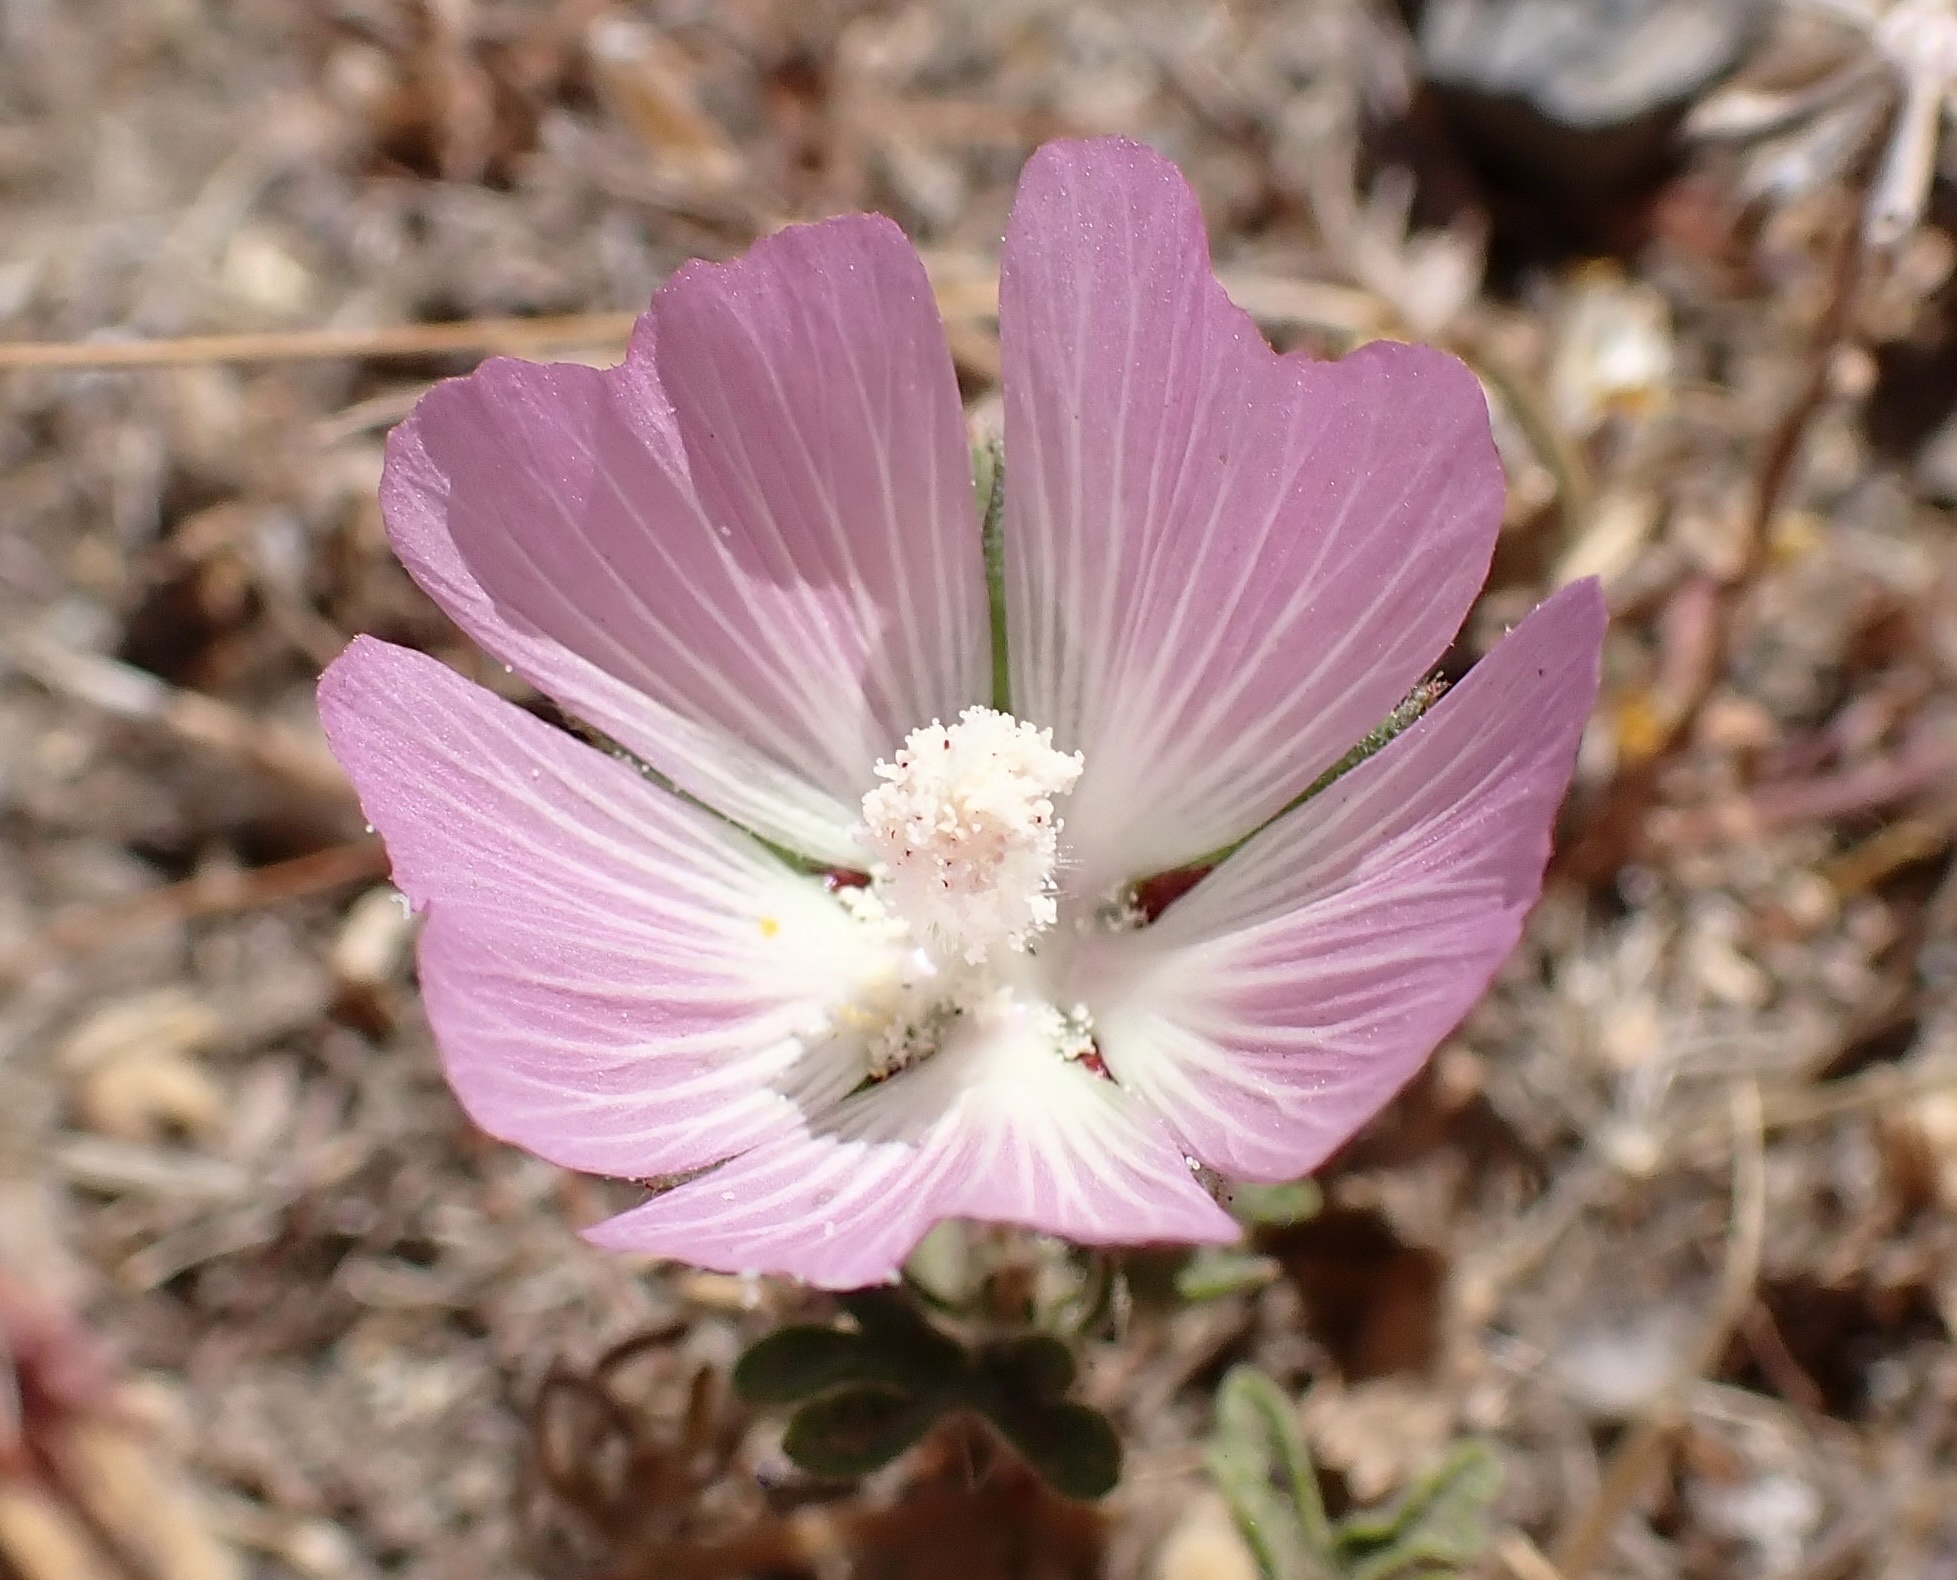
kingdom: Plantae
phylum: Tracheophyta
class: Magnoliopsida
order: Malvales
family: Malvaceae
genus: Sidalcea
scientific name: Sidalcea diploscypha
